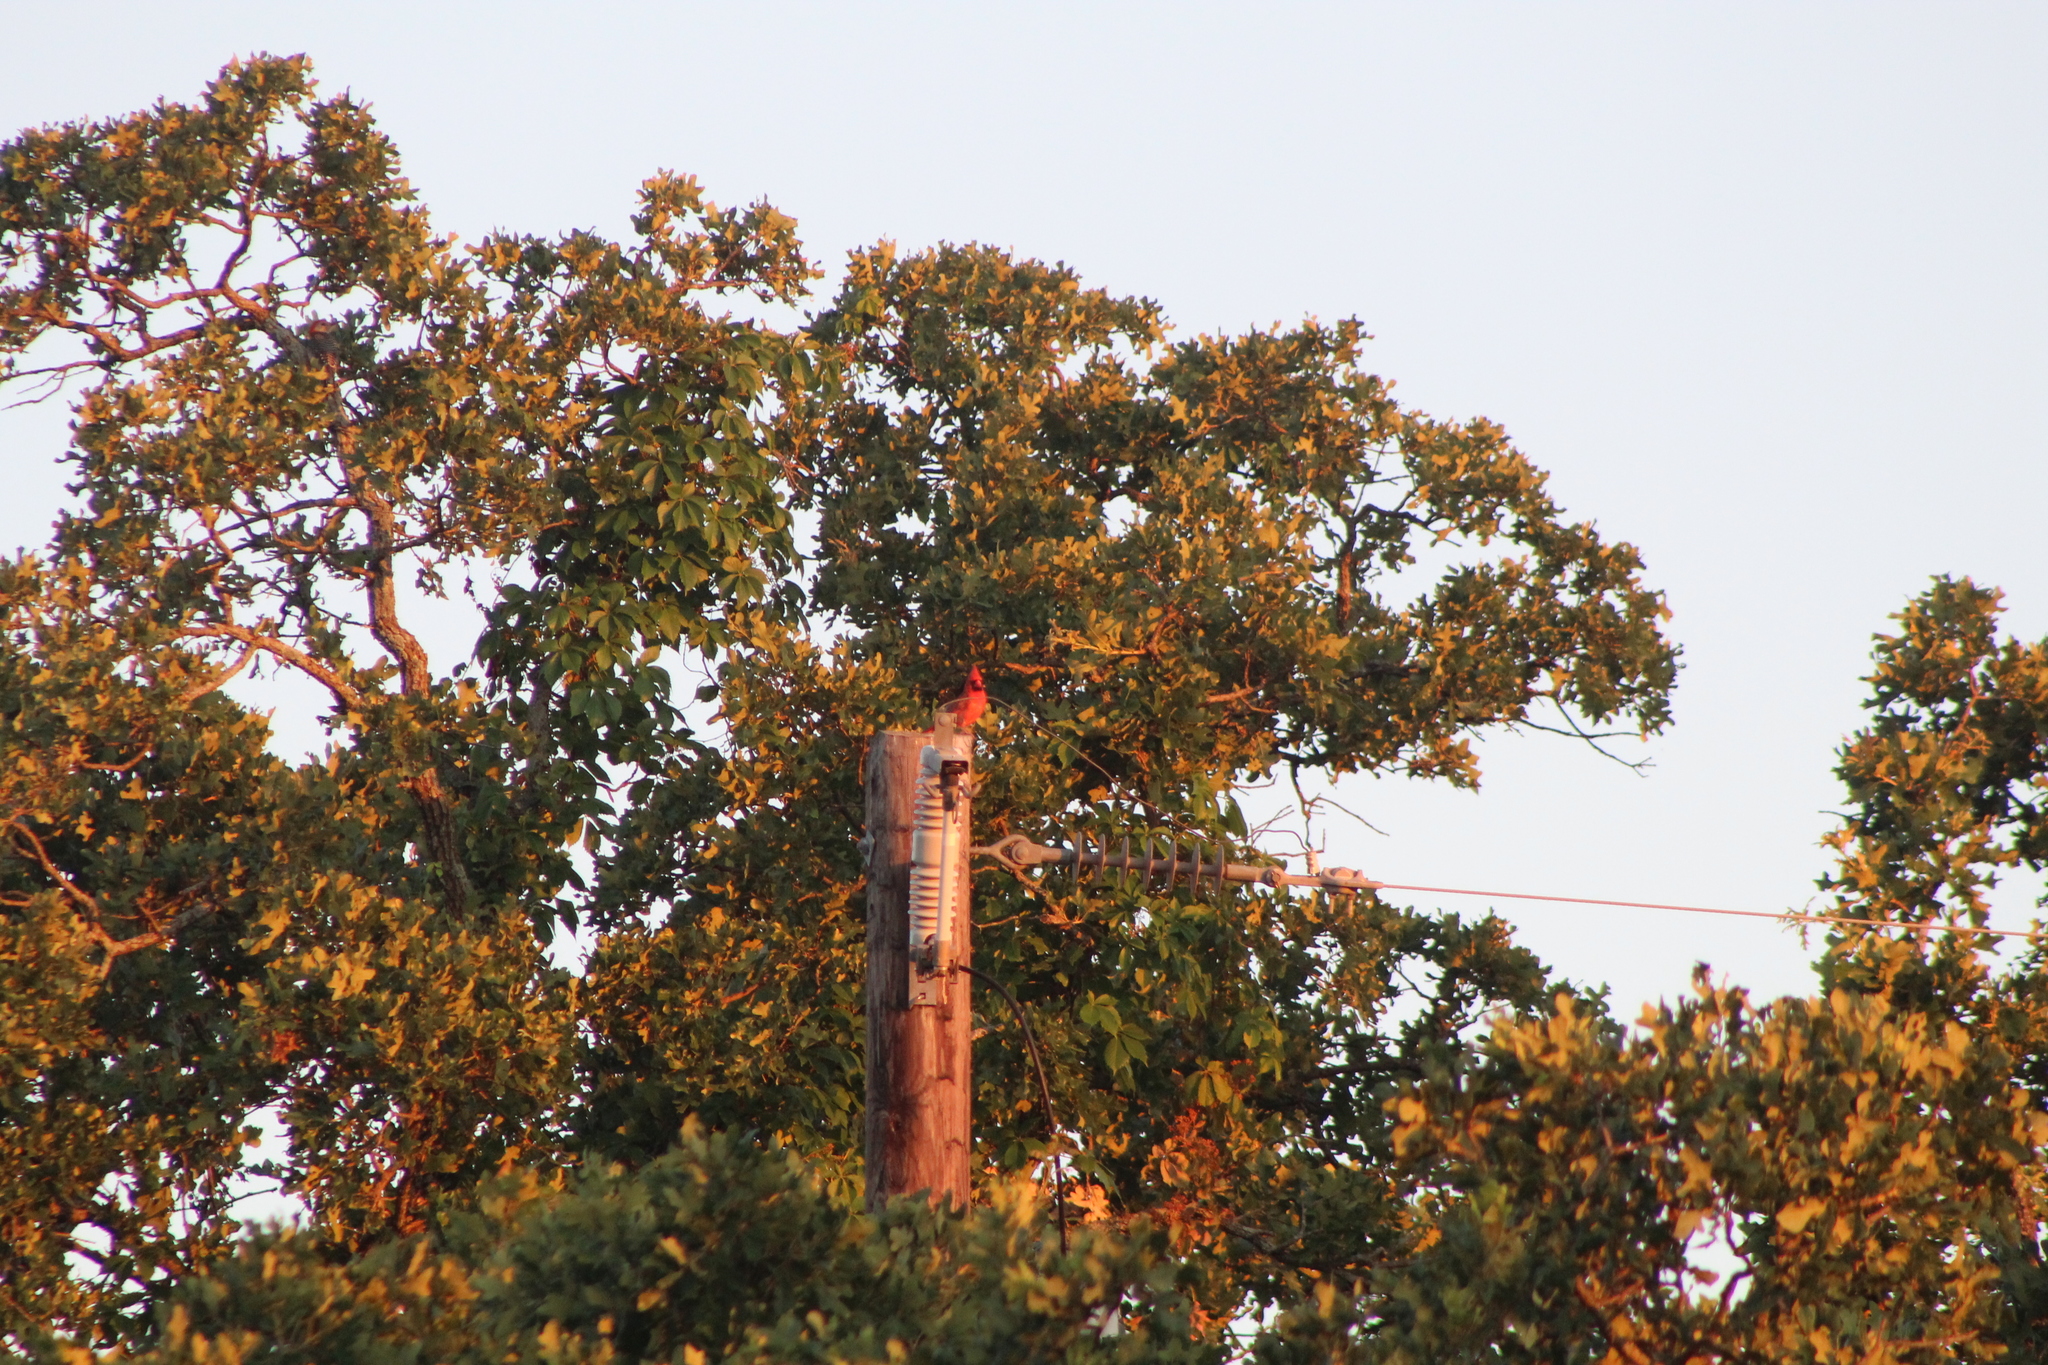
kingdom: Animalia
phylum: Chordata
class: Aves
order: Passeriformes
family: Cardinalidae
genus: Cardinalis
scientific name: Cardinalis cardinalis
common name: Northern cardinal
